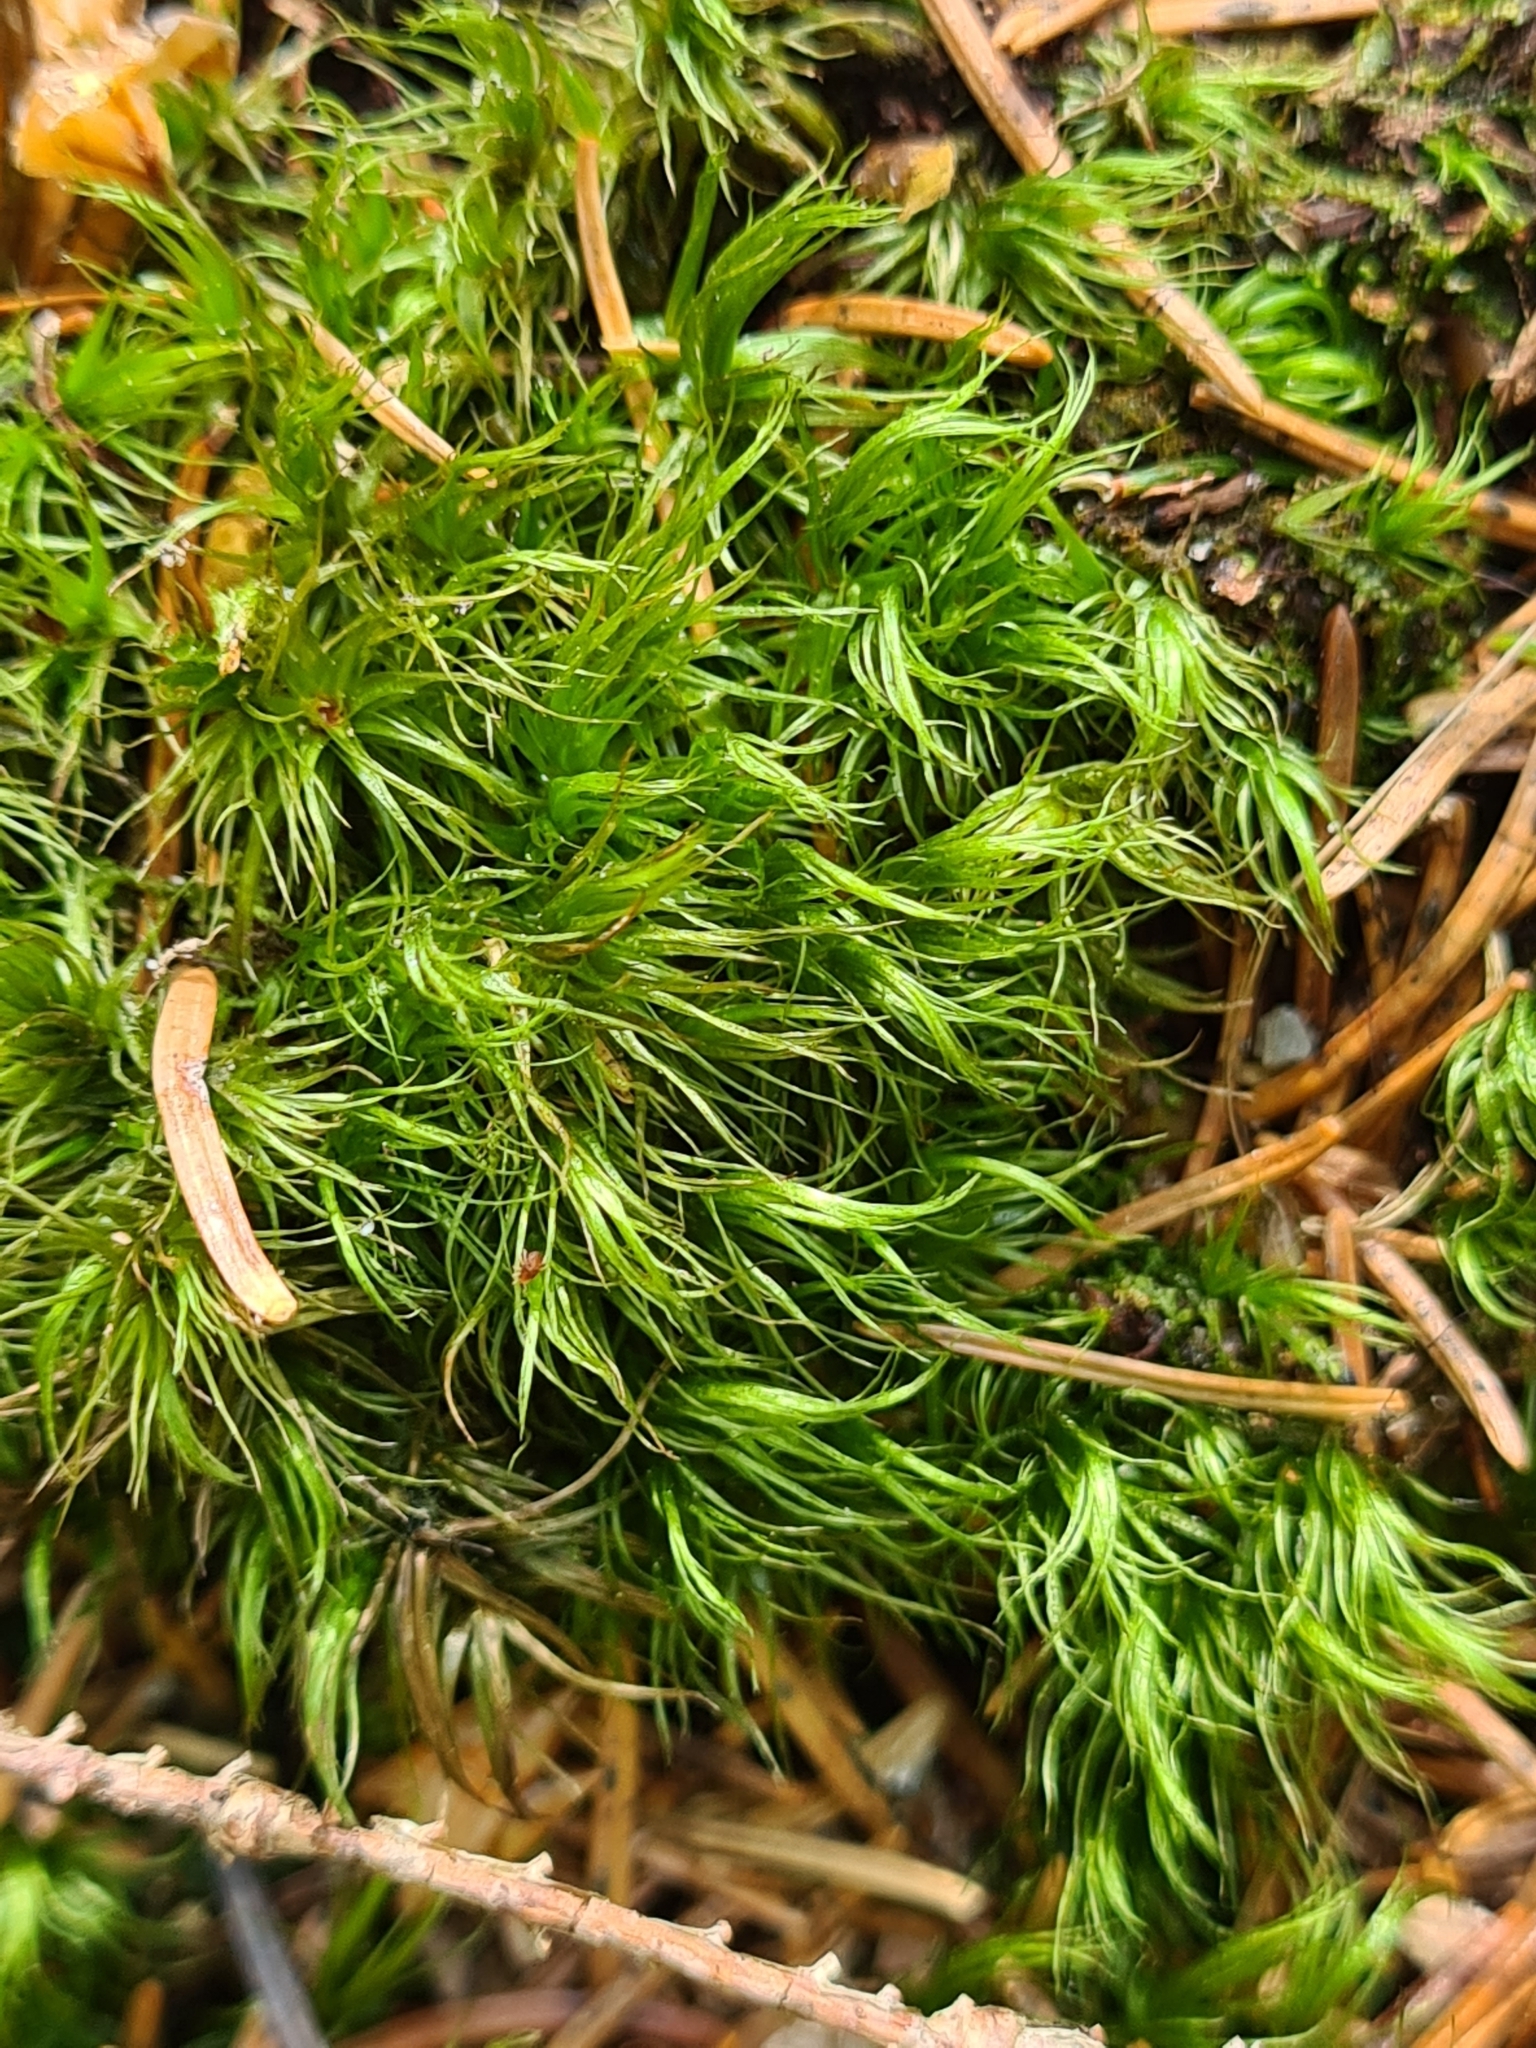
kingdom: Plantae
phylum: Bryophyta
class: Bryopsida
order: Dicranales
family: Dicranaceae
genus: Dicranum
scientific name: Dicranum scoparium
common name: Broom fork-moss
